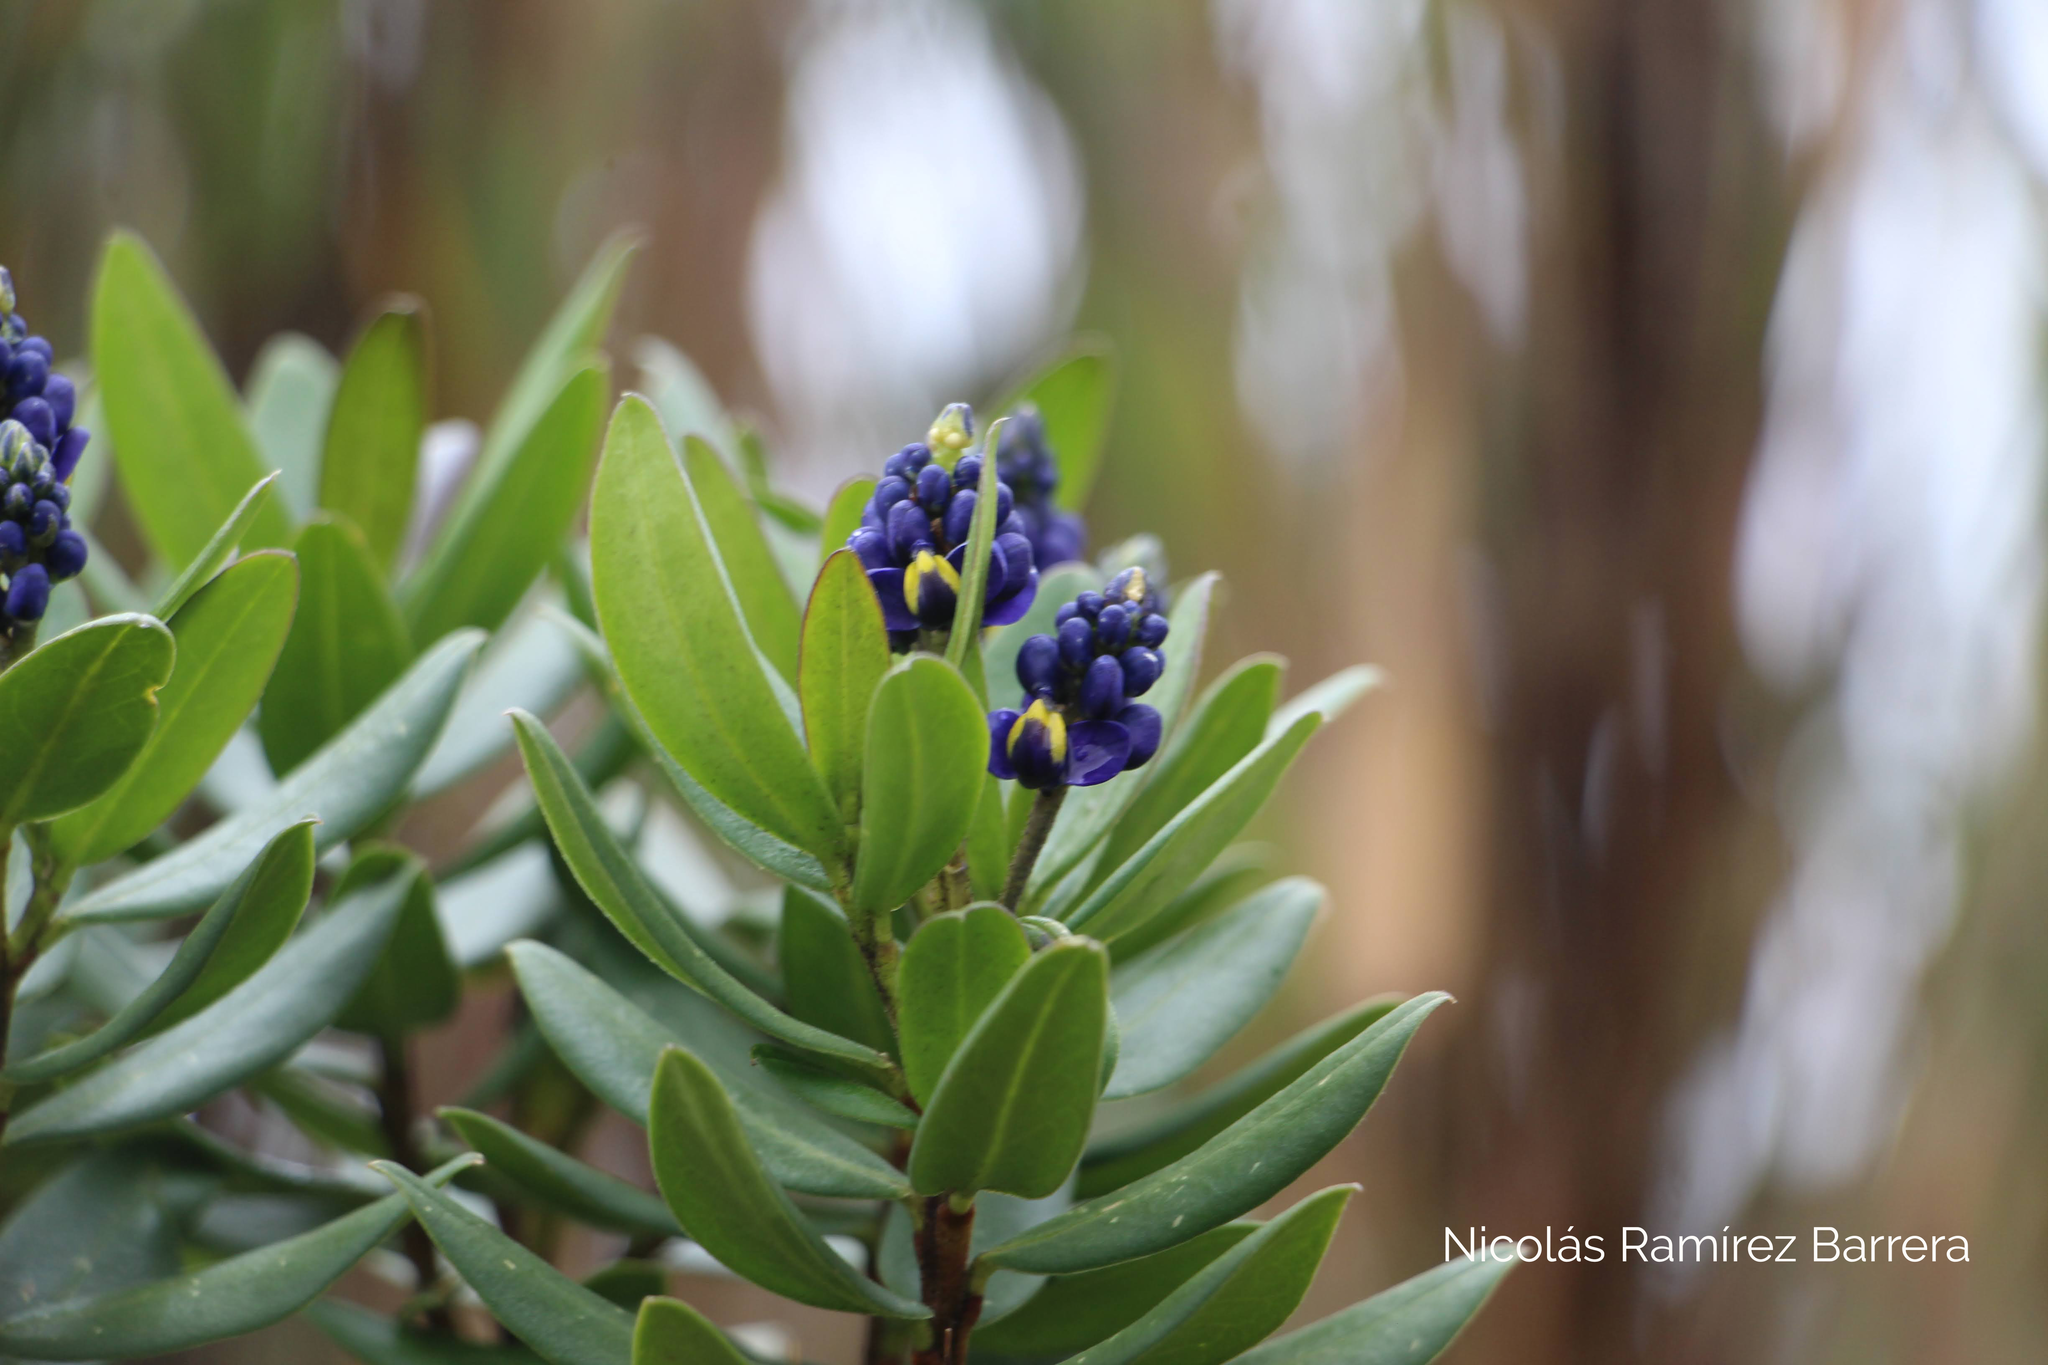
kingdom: Plantae
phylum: Tracheophyta
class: Magnoliopsida
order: Fabales
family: Polygalaceae
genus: Monnina
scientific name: Monnina salicifolia
